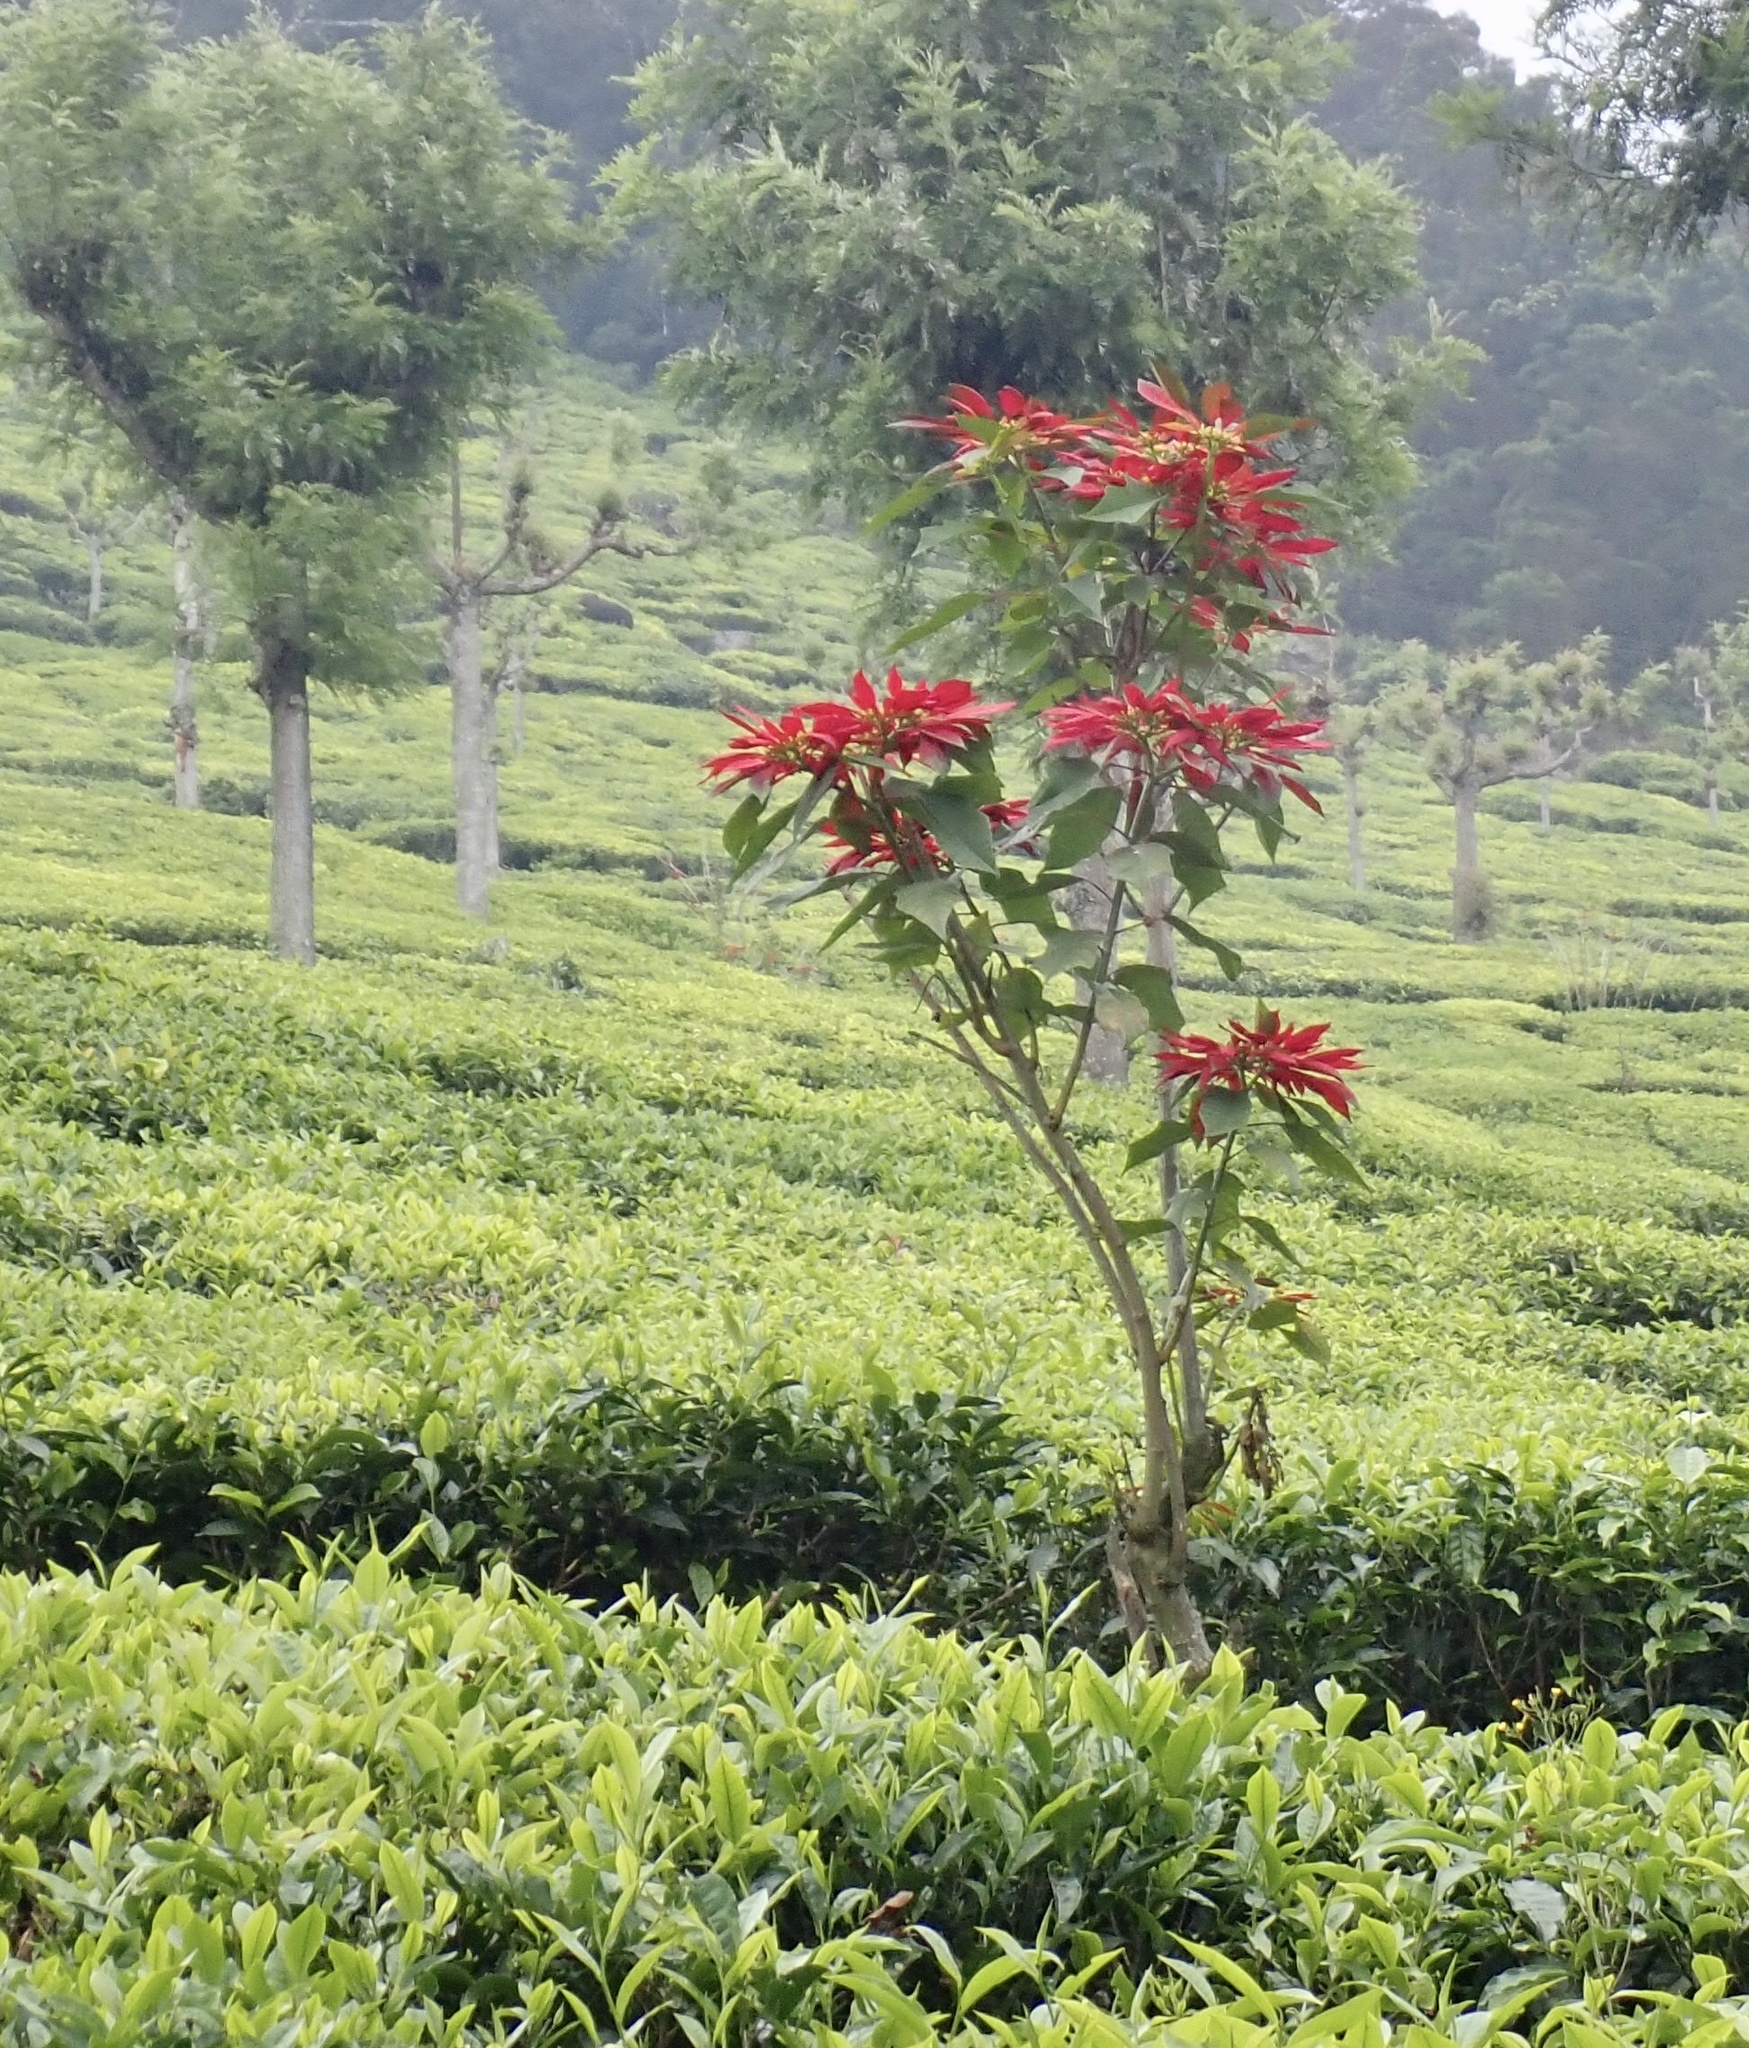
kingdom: Plantae
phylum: Tracheophyta
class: Magnoliopsida
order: Malpighiales
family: Euphorbiaceae
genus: Euphorbia
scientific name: Euphorbia pulcherrima
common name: Christmas-flower
